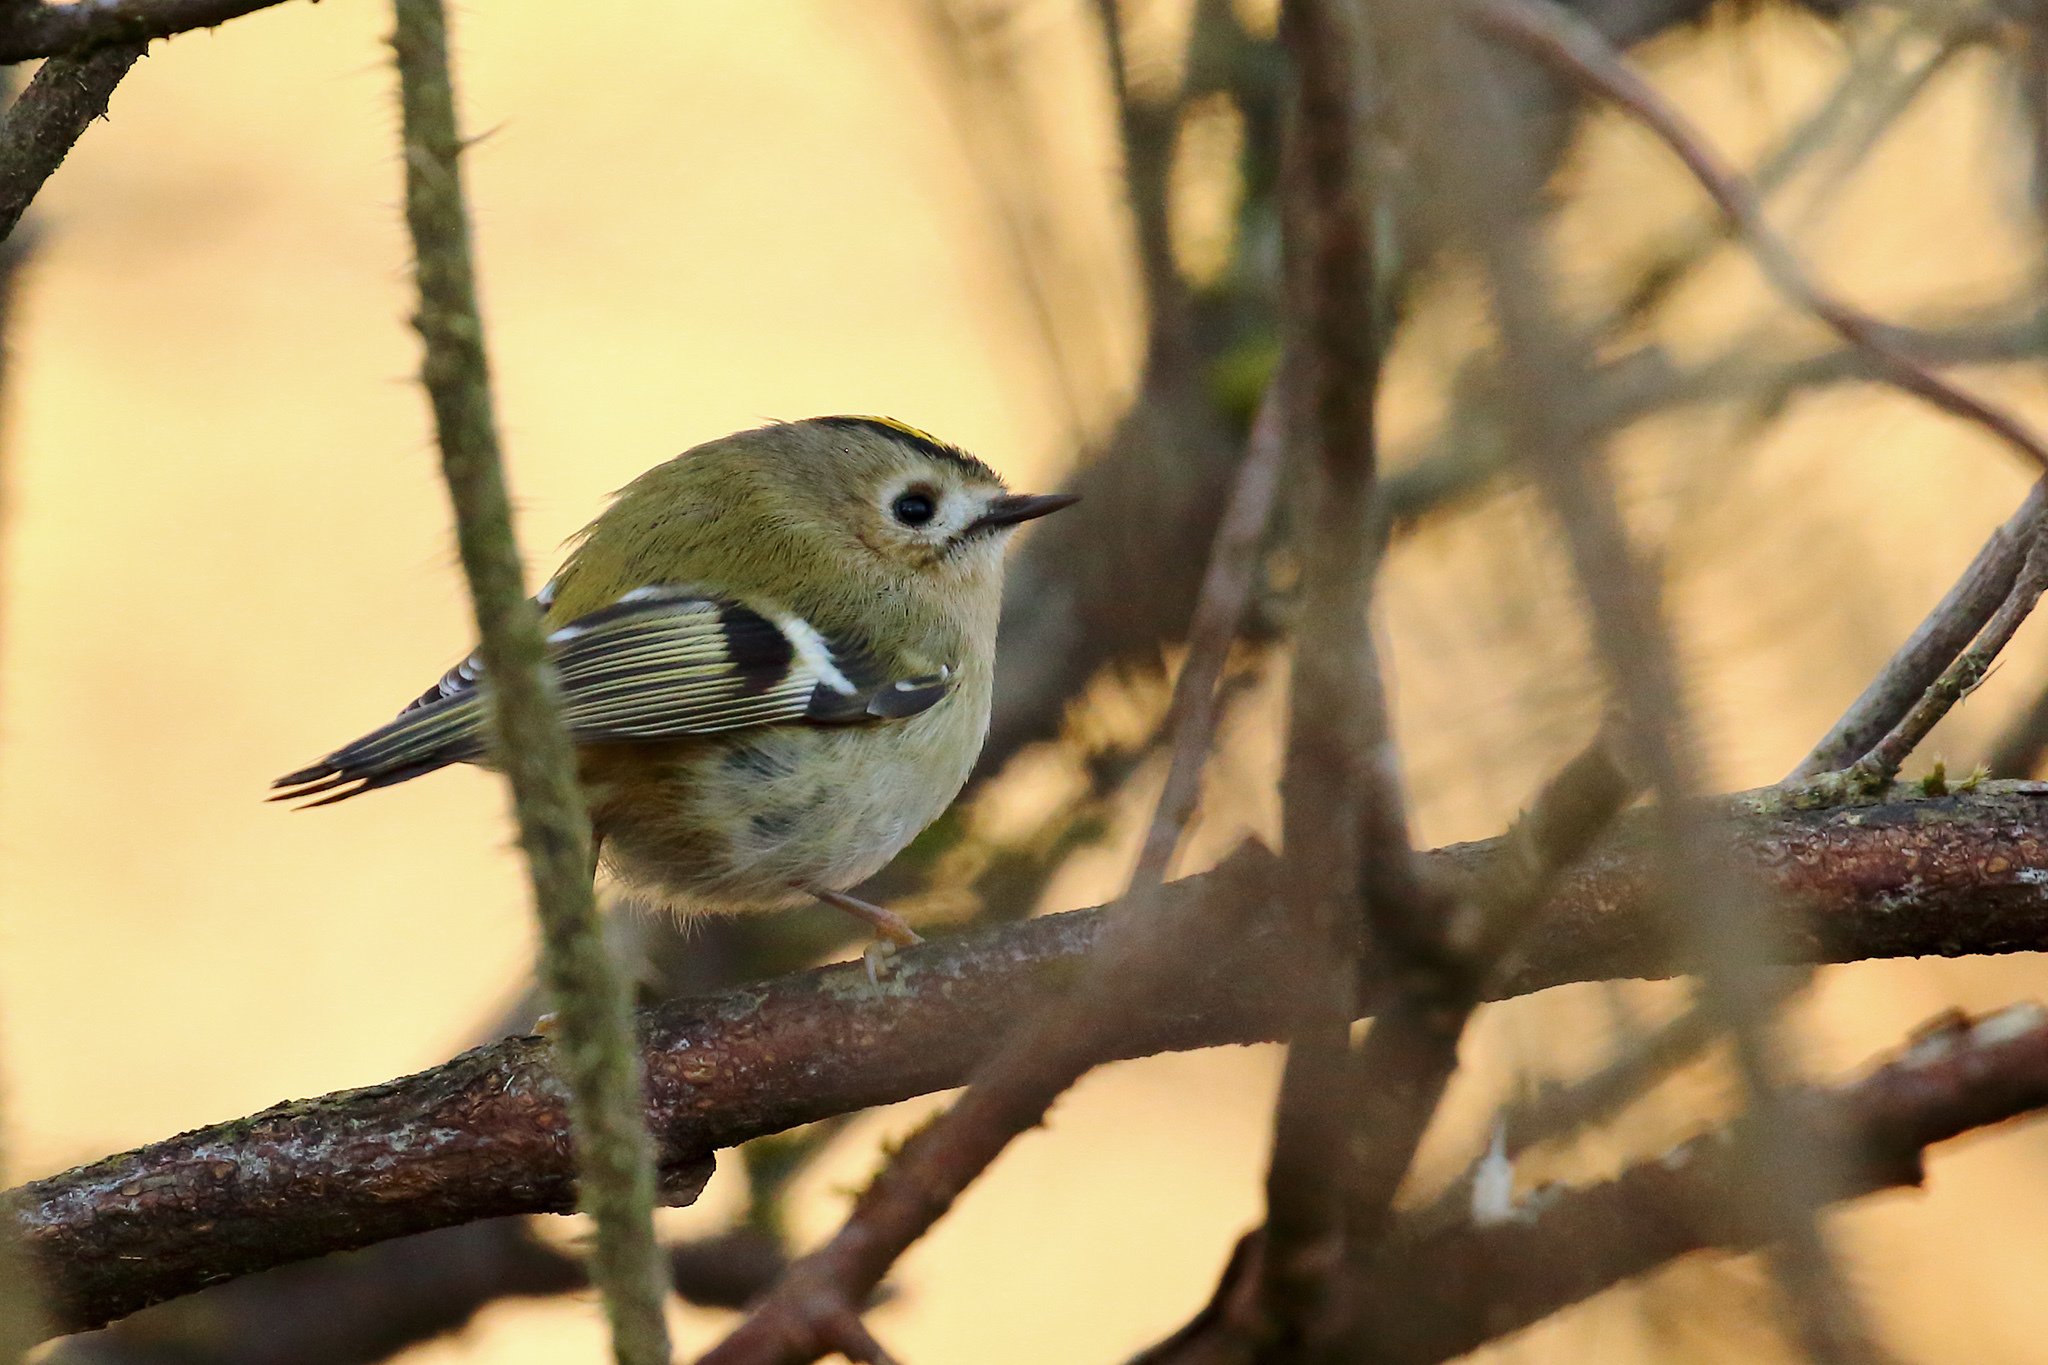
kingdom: Animalia
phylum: Chordata
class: Aves
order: Passeriformes
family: Regulidae
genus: Regulus
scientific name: Regulus regulus
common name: Goldcrest
